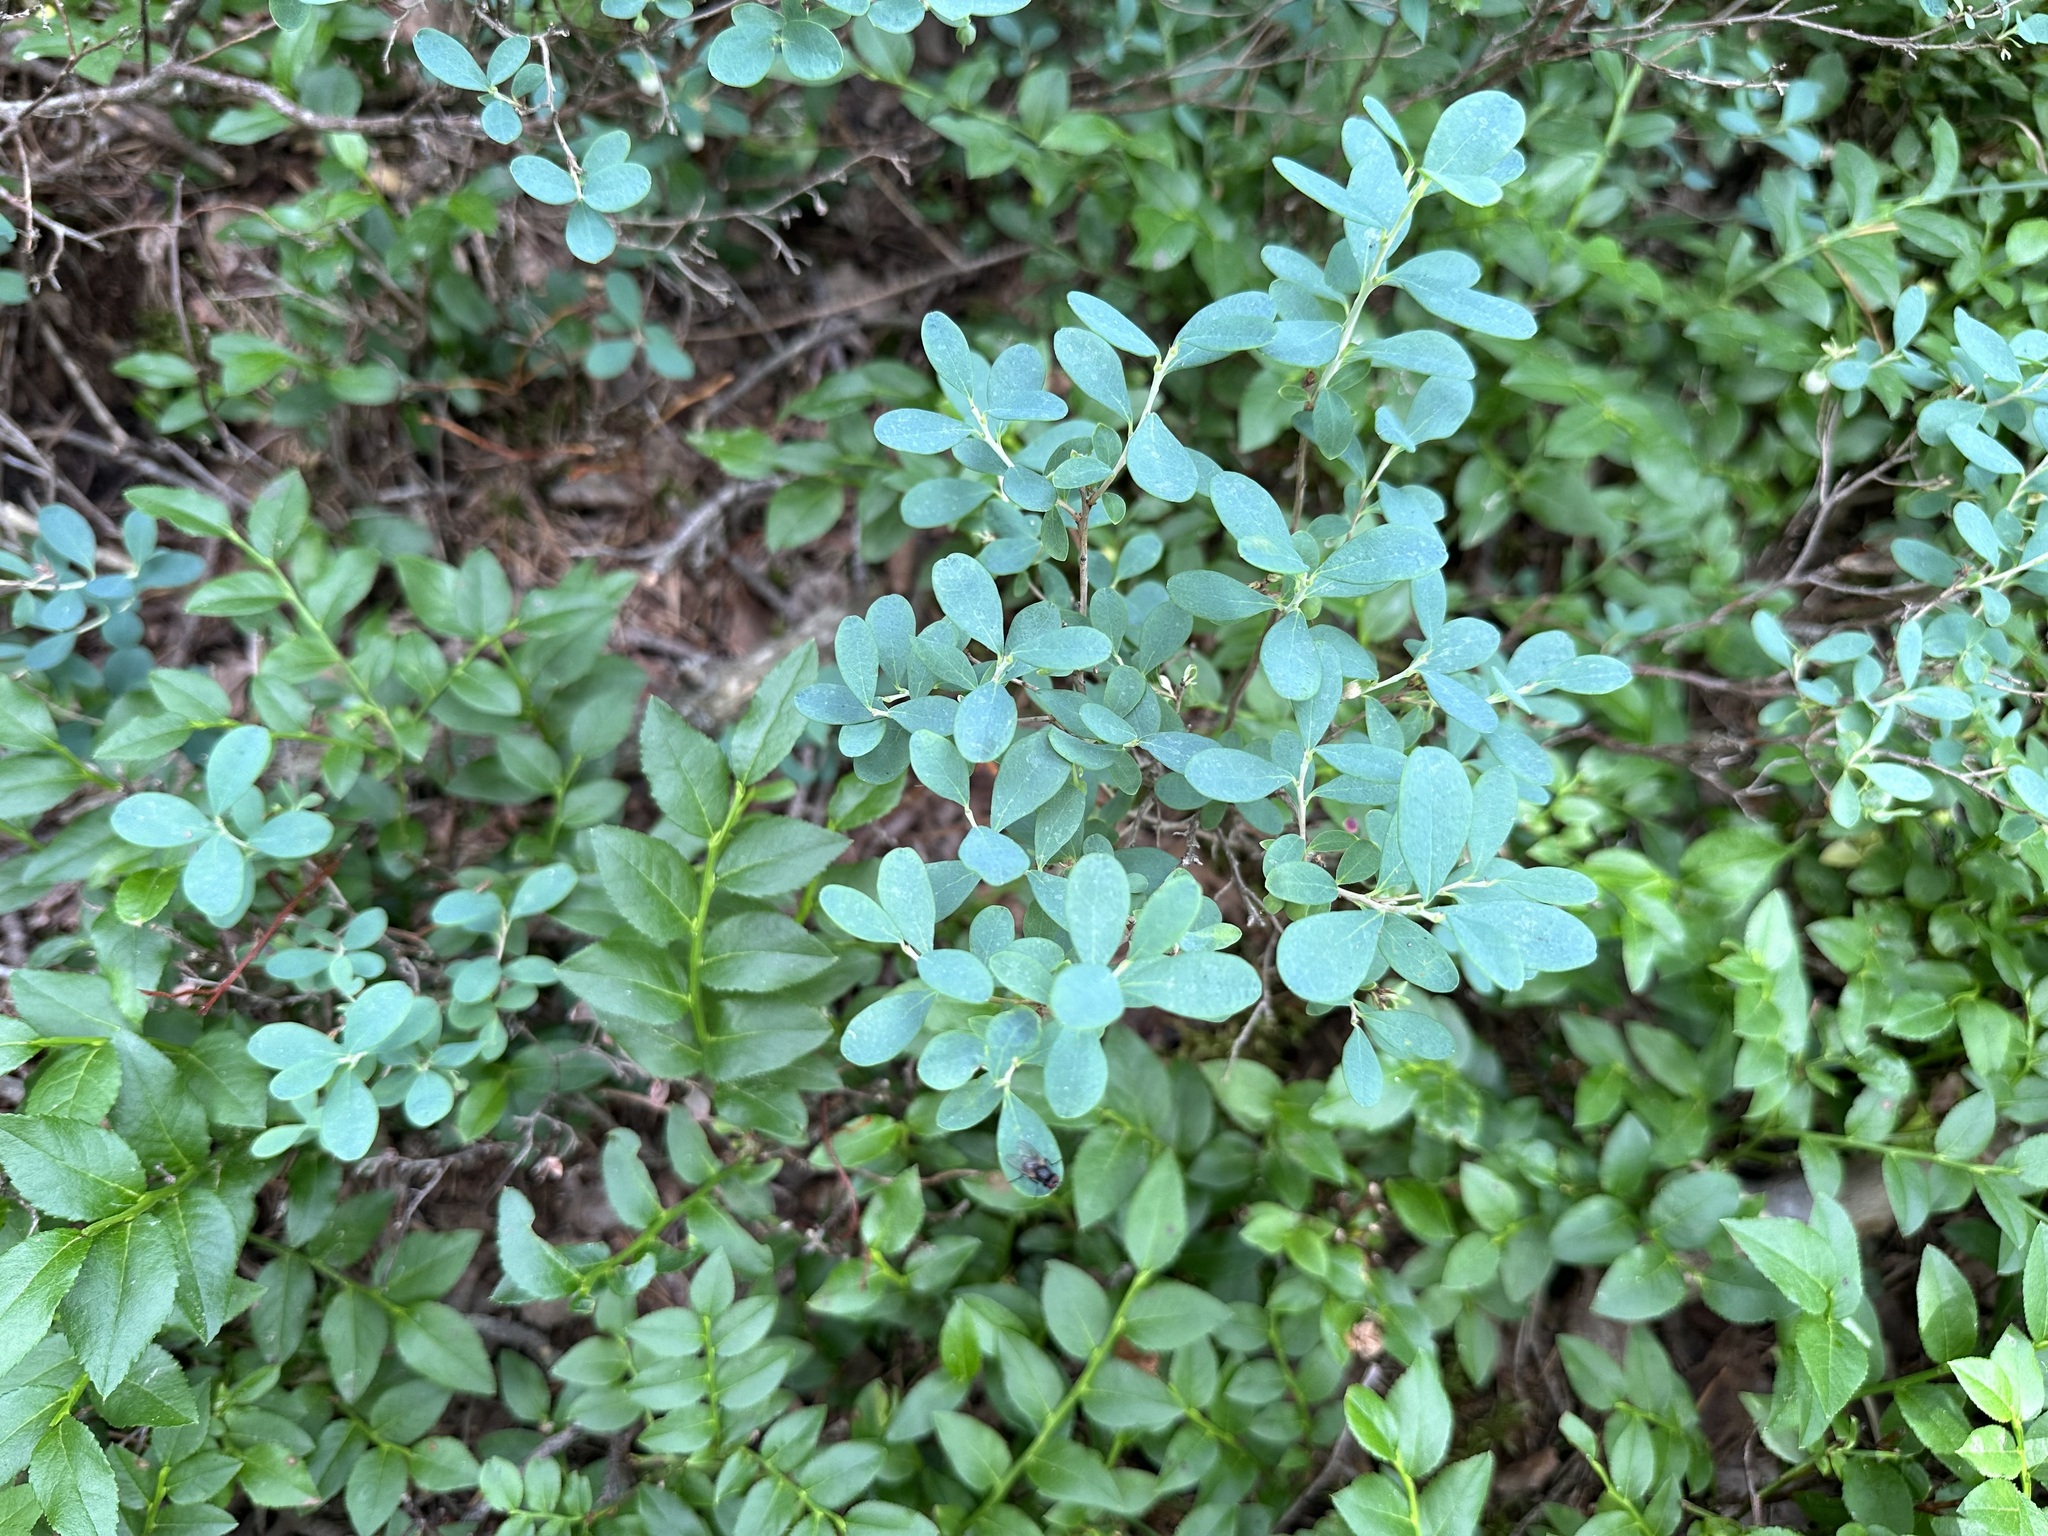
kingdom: Plantae
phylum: Tracheophyta
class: Magnoliopsida
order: Ericales
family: Ericaceae
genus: Vaccinium
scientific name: Vaccinium uliginosum
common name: Bog bilberry
